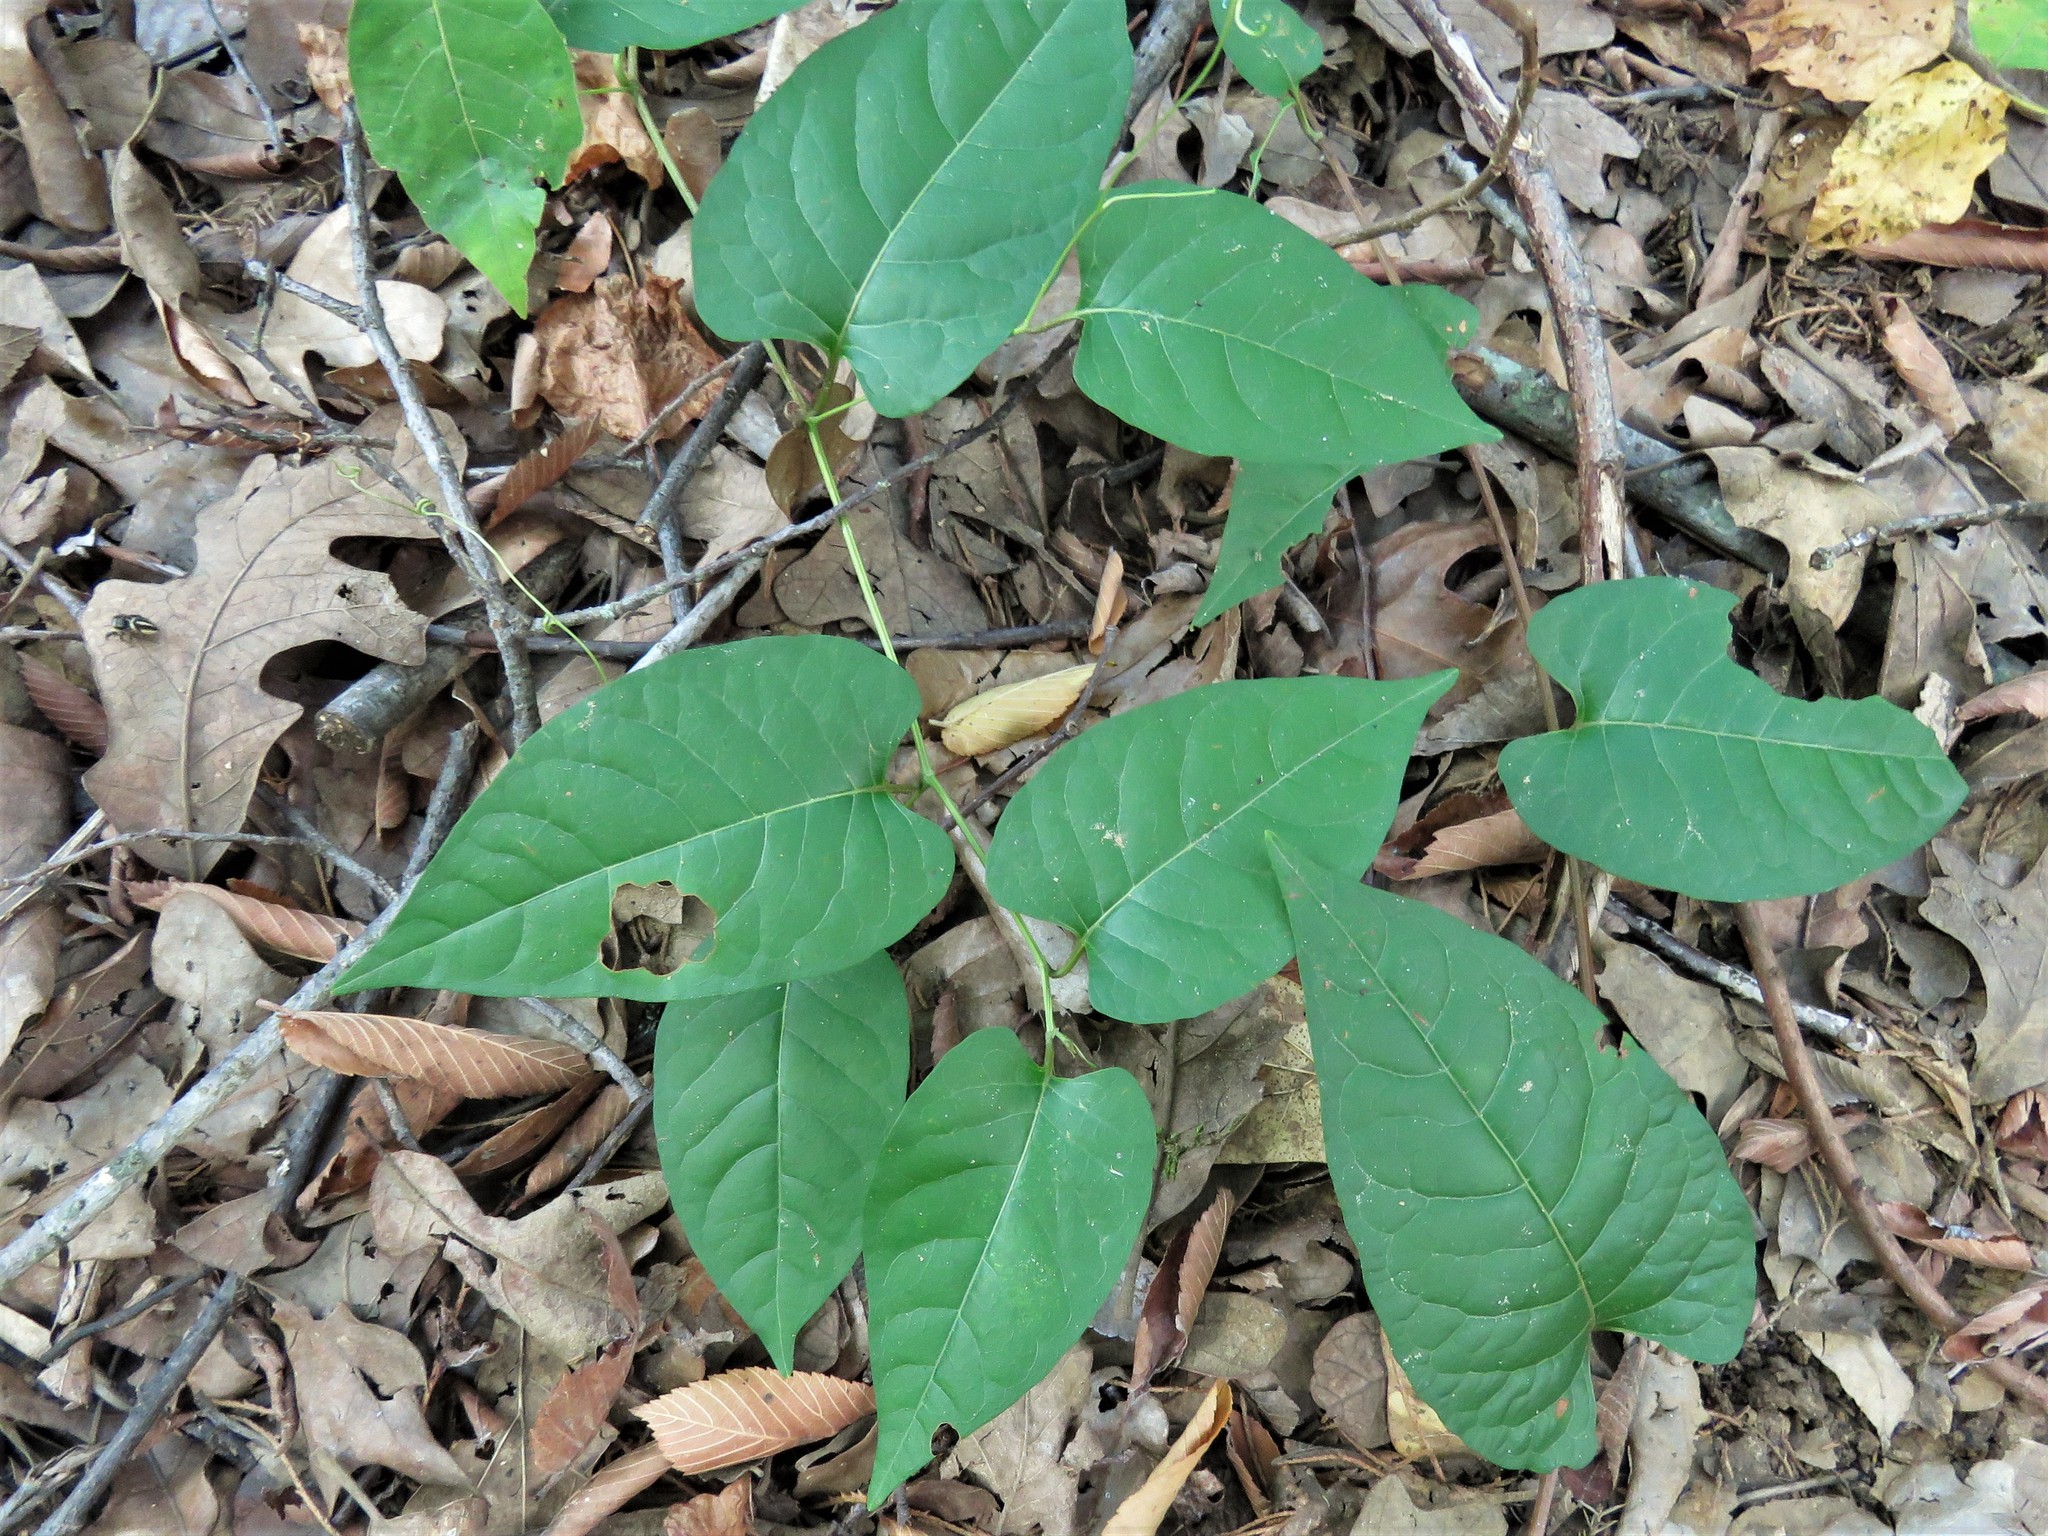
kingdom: Plantae
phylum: Tracheophyta
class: Magnoliopsida
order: Caryophyllales
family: Polygonaceae
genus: Brunnichia
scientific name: Brunnichia ovata
